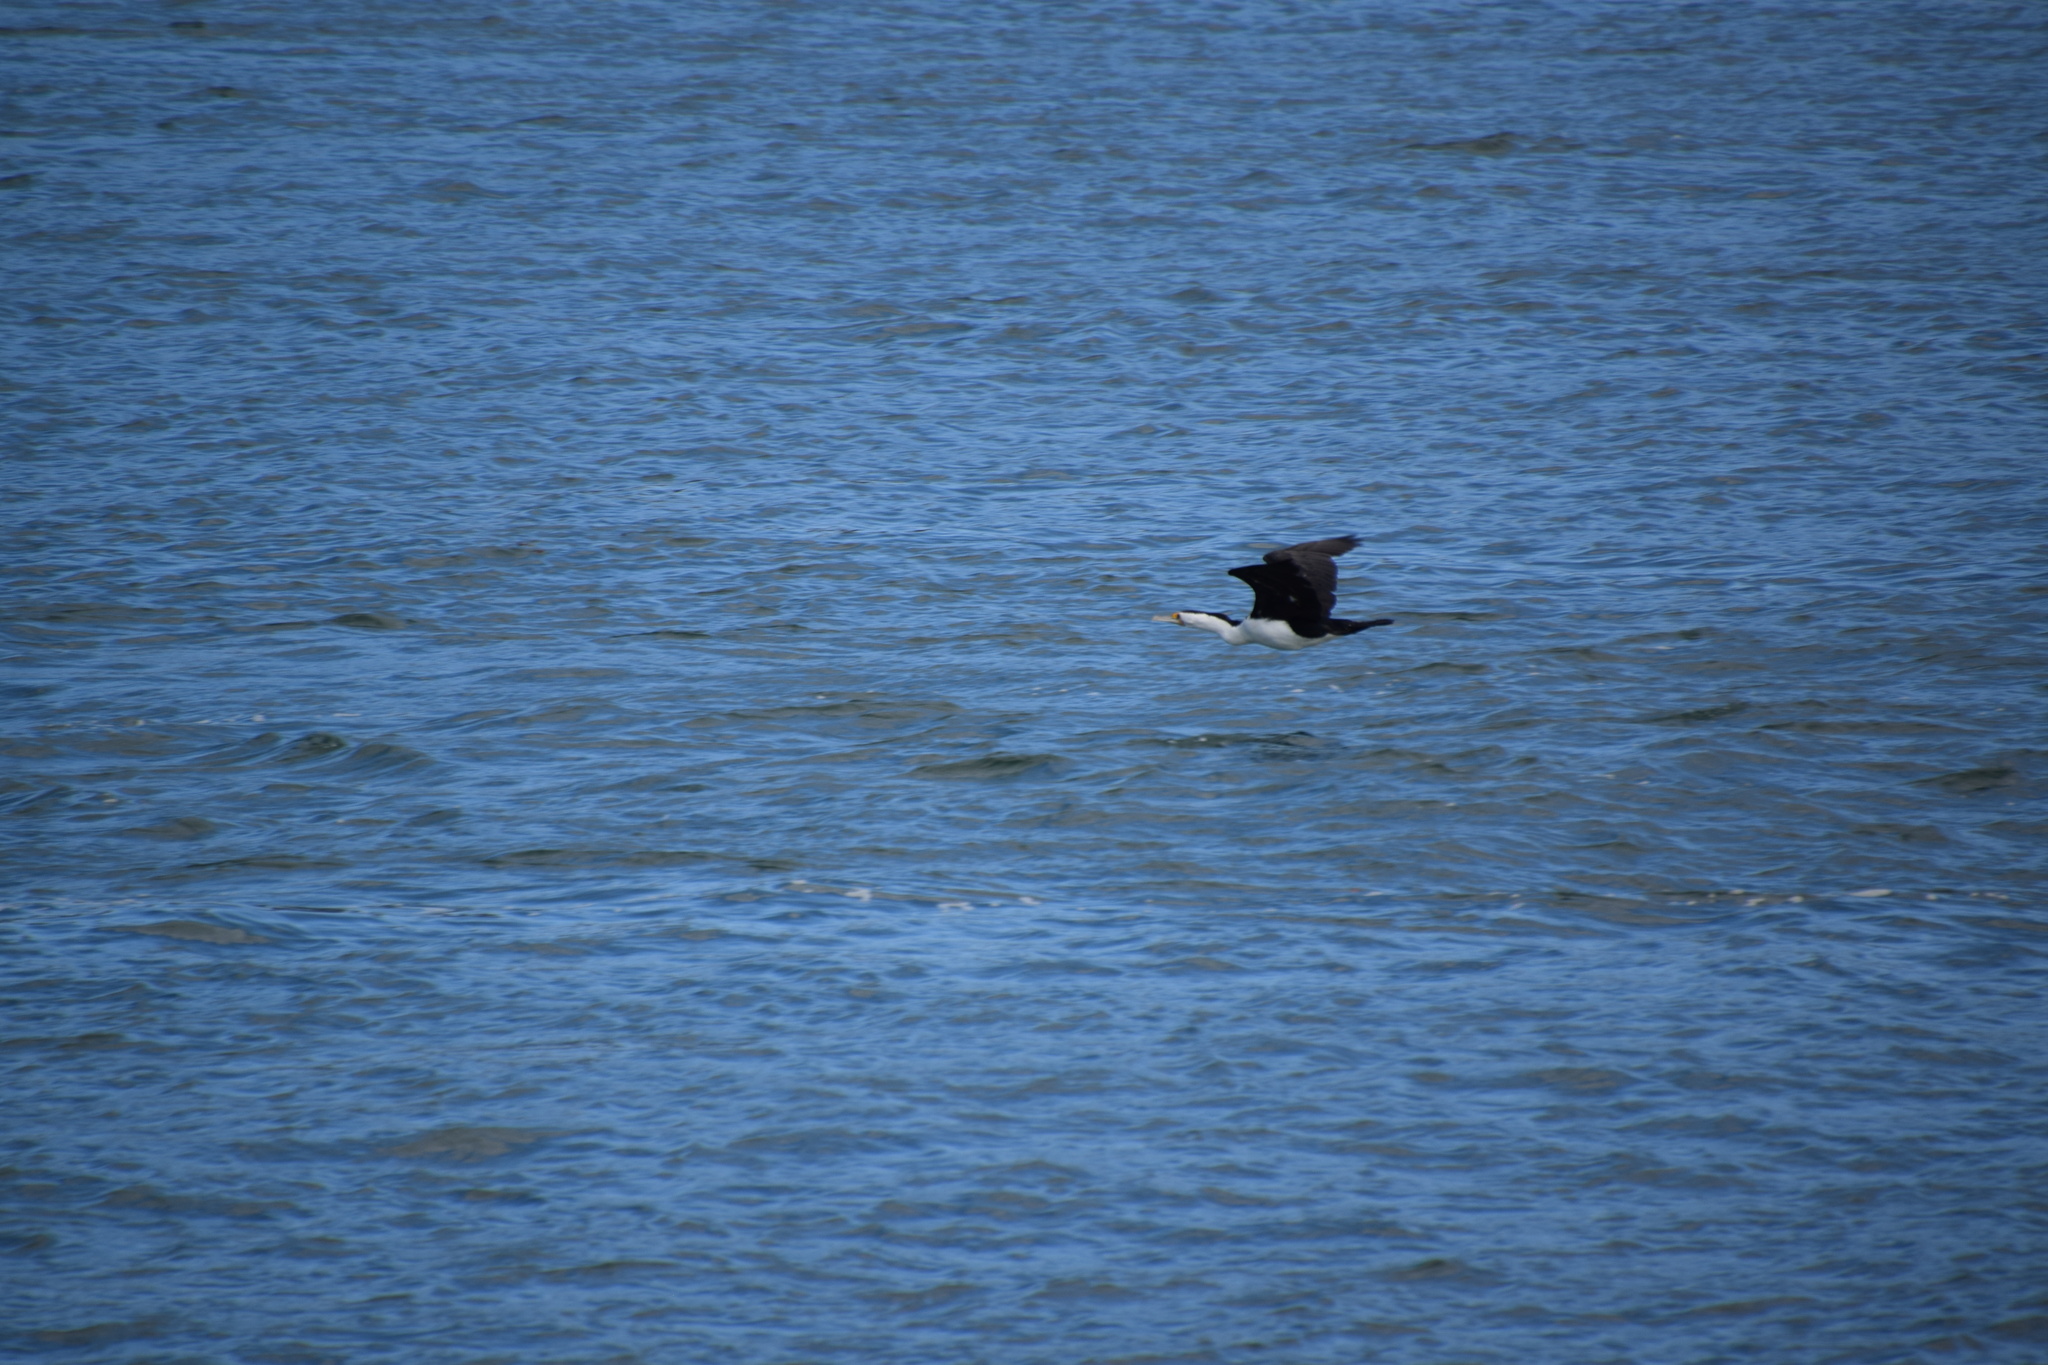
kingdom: Animalia
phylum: Chordata
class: Aves
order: Suliformes
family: Phalacrocoracidae
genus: Phalacrocorax
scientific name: Phalacrocorax varius
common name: Pied cormorant
